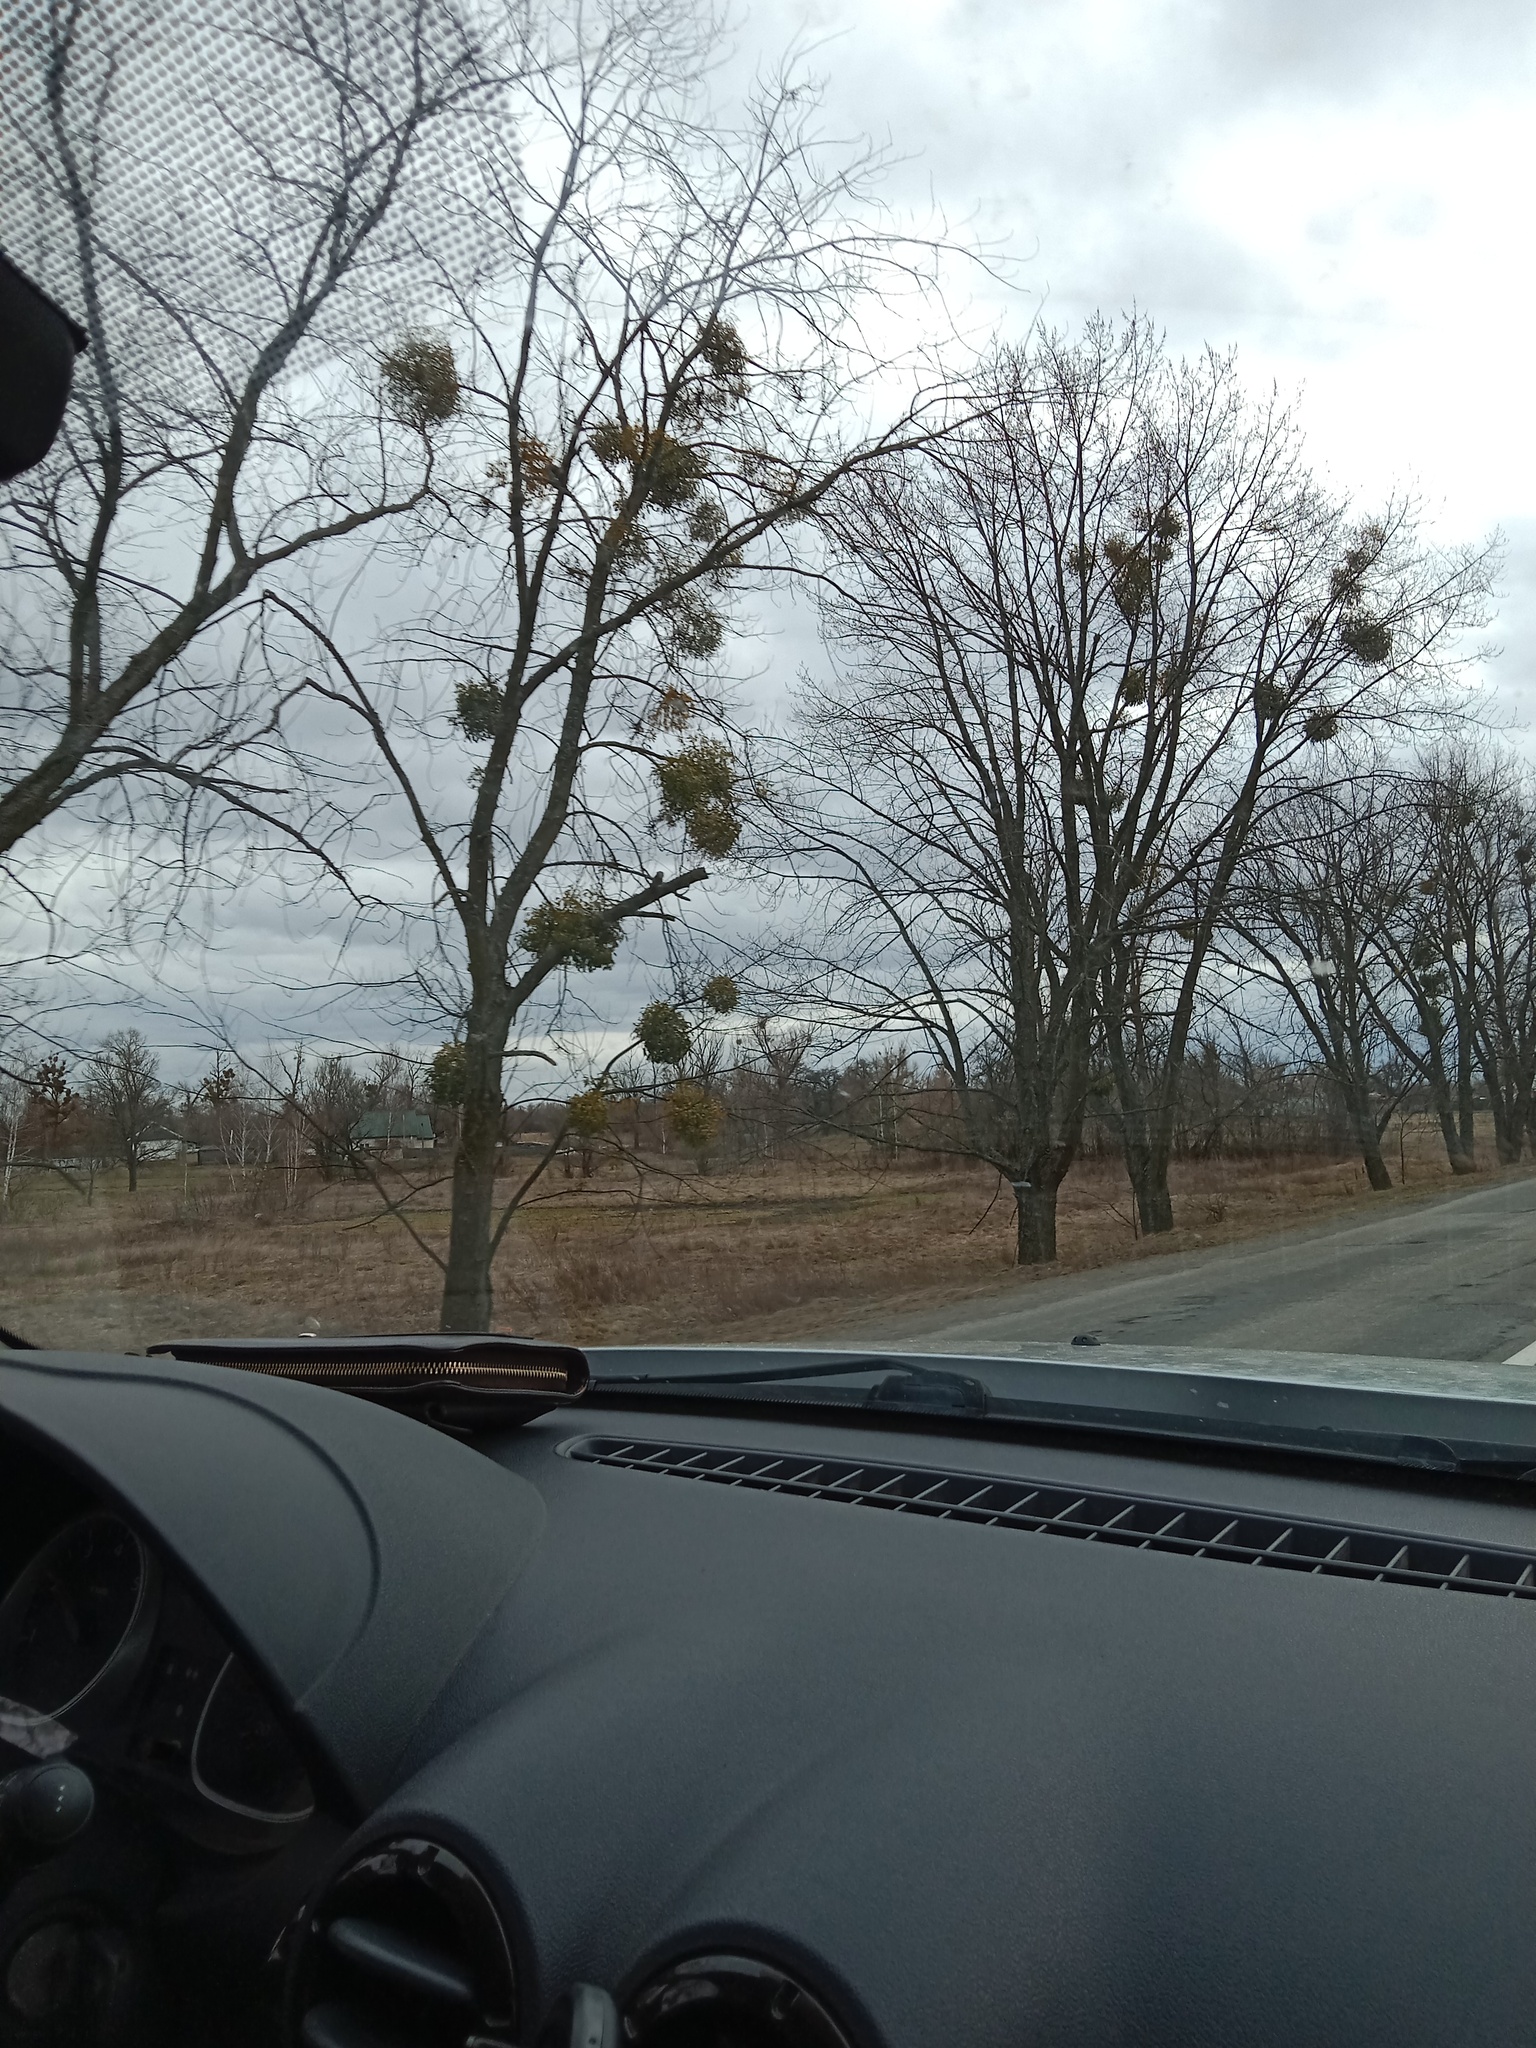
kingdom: Plantae
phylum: Tracheophyta
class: Magnoliopsida
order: Santalales
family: Viscaceae
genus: Viscum
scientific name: Viscum album
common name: Mistletoe
